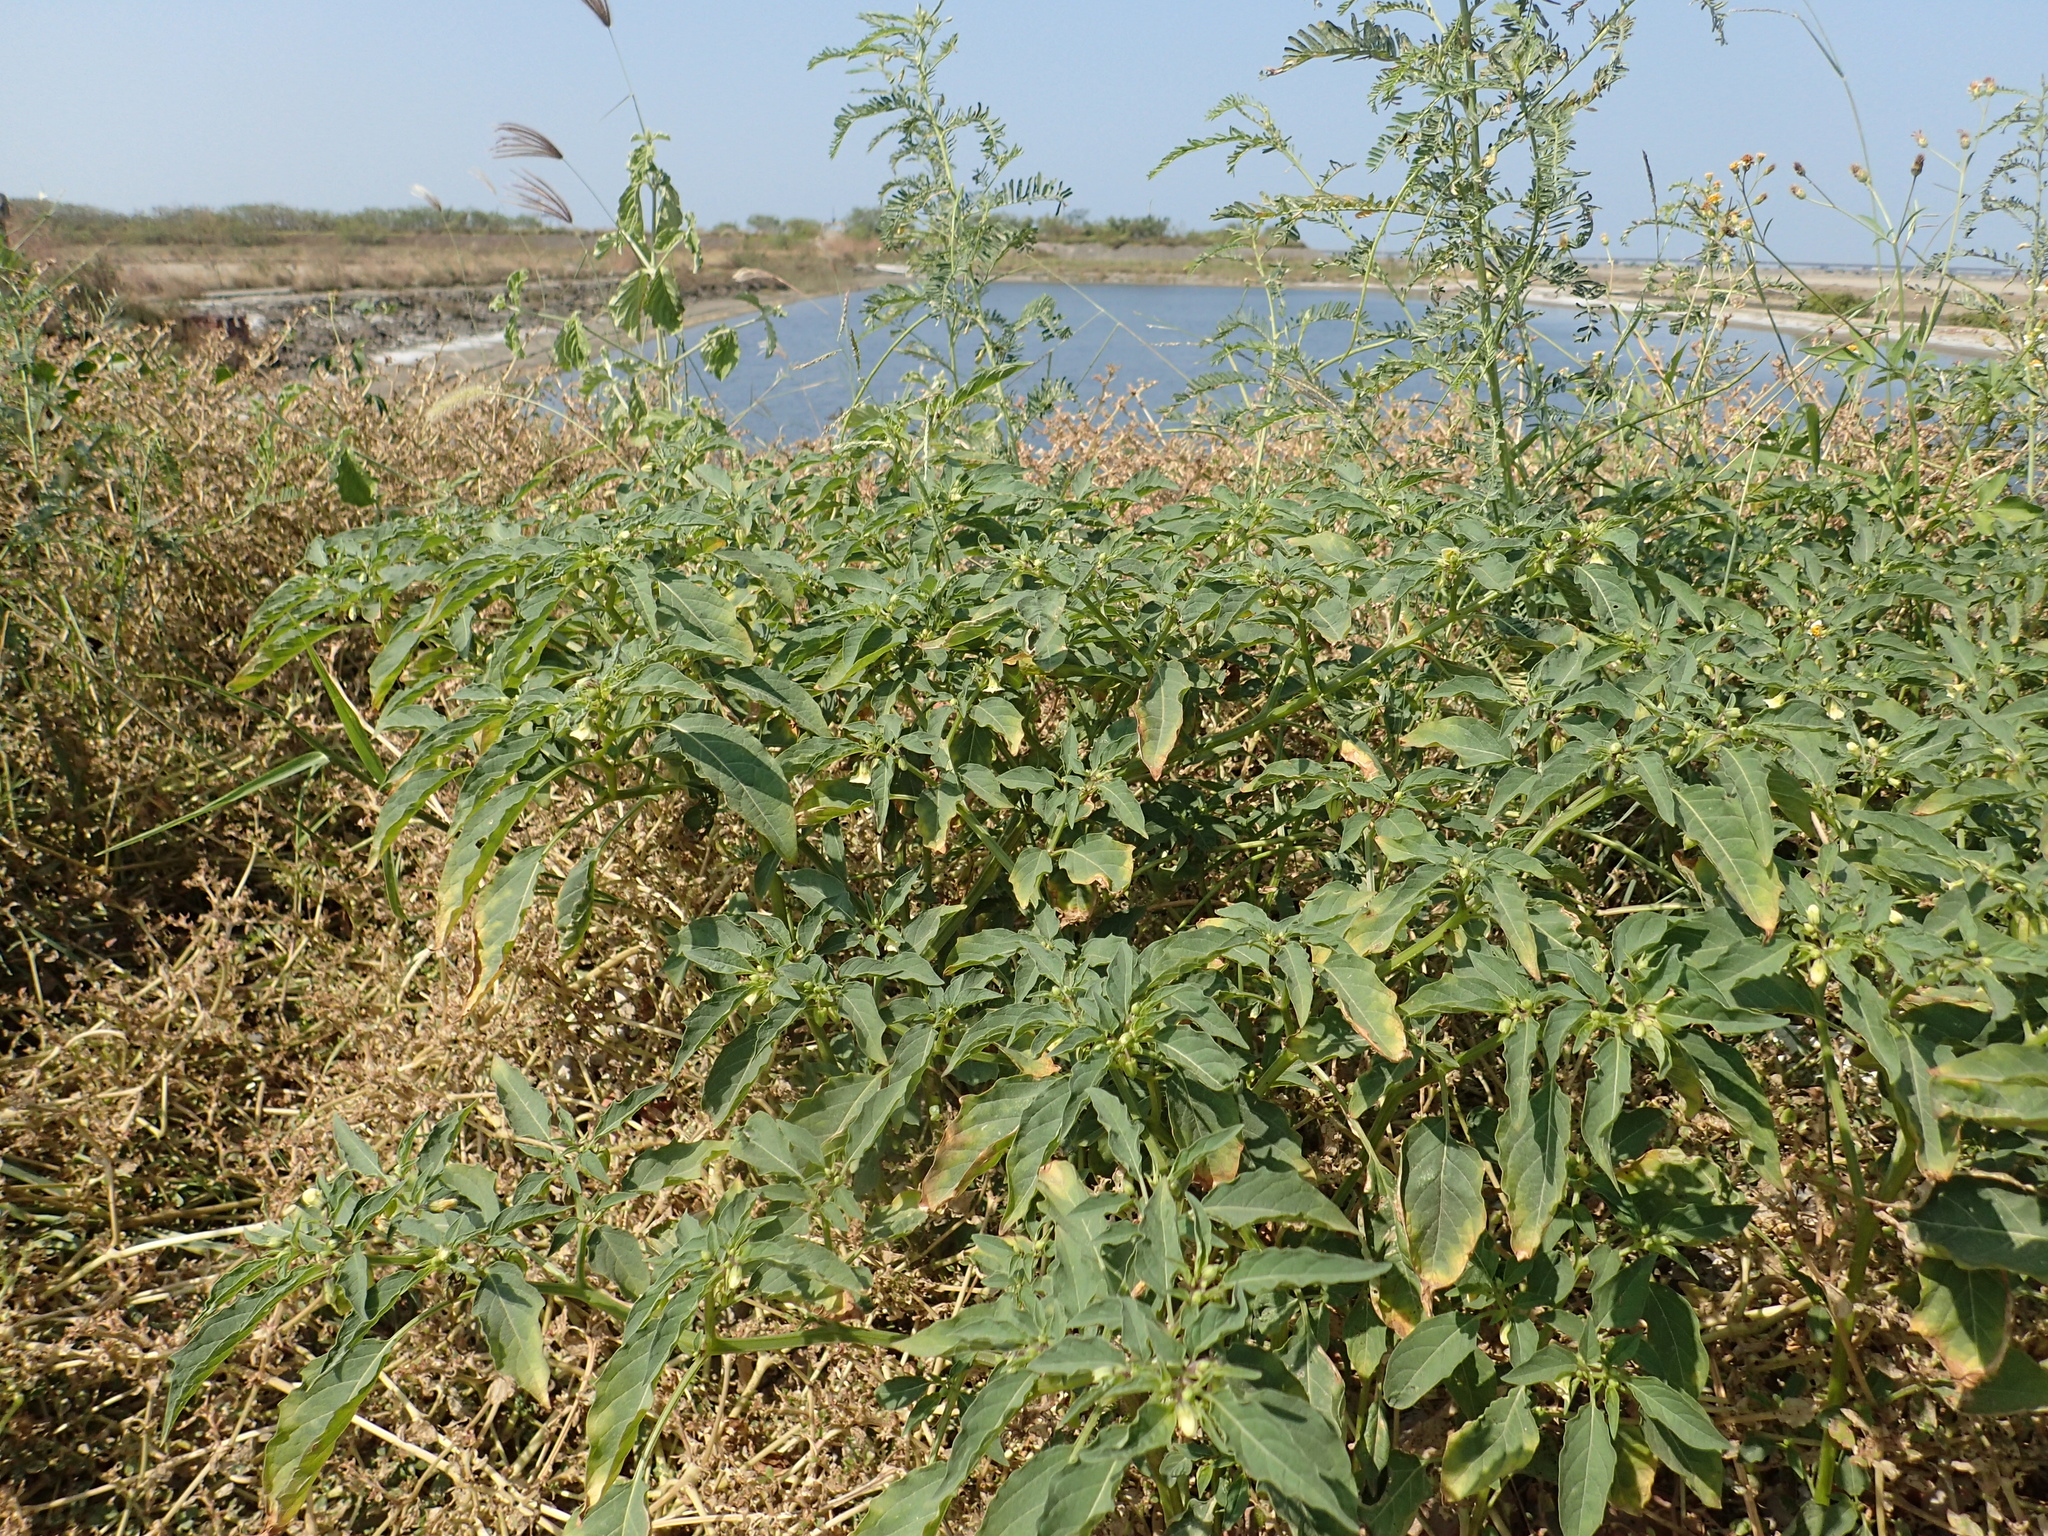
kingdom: Plantae
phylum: Tracheophyta
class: Magnoliopsida
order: Solanales
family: Solanaceae
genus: Physalis
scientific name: Physalis angulata
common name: Angular winter-cherry
